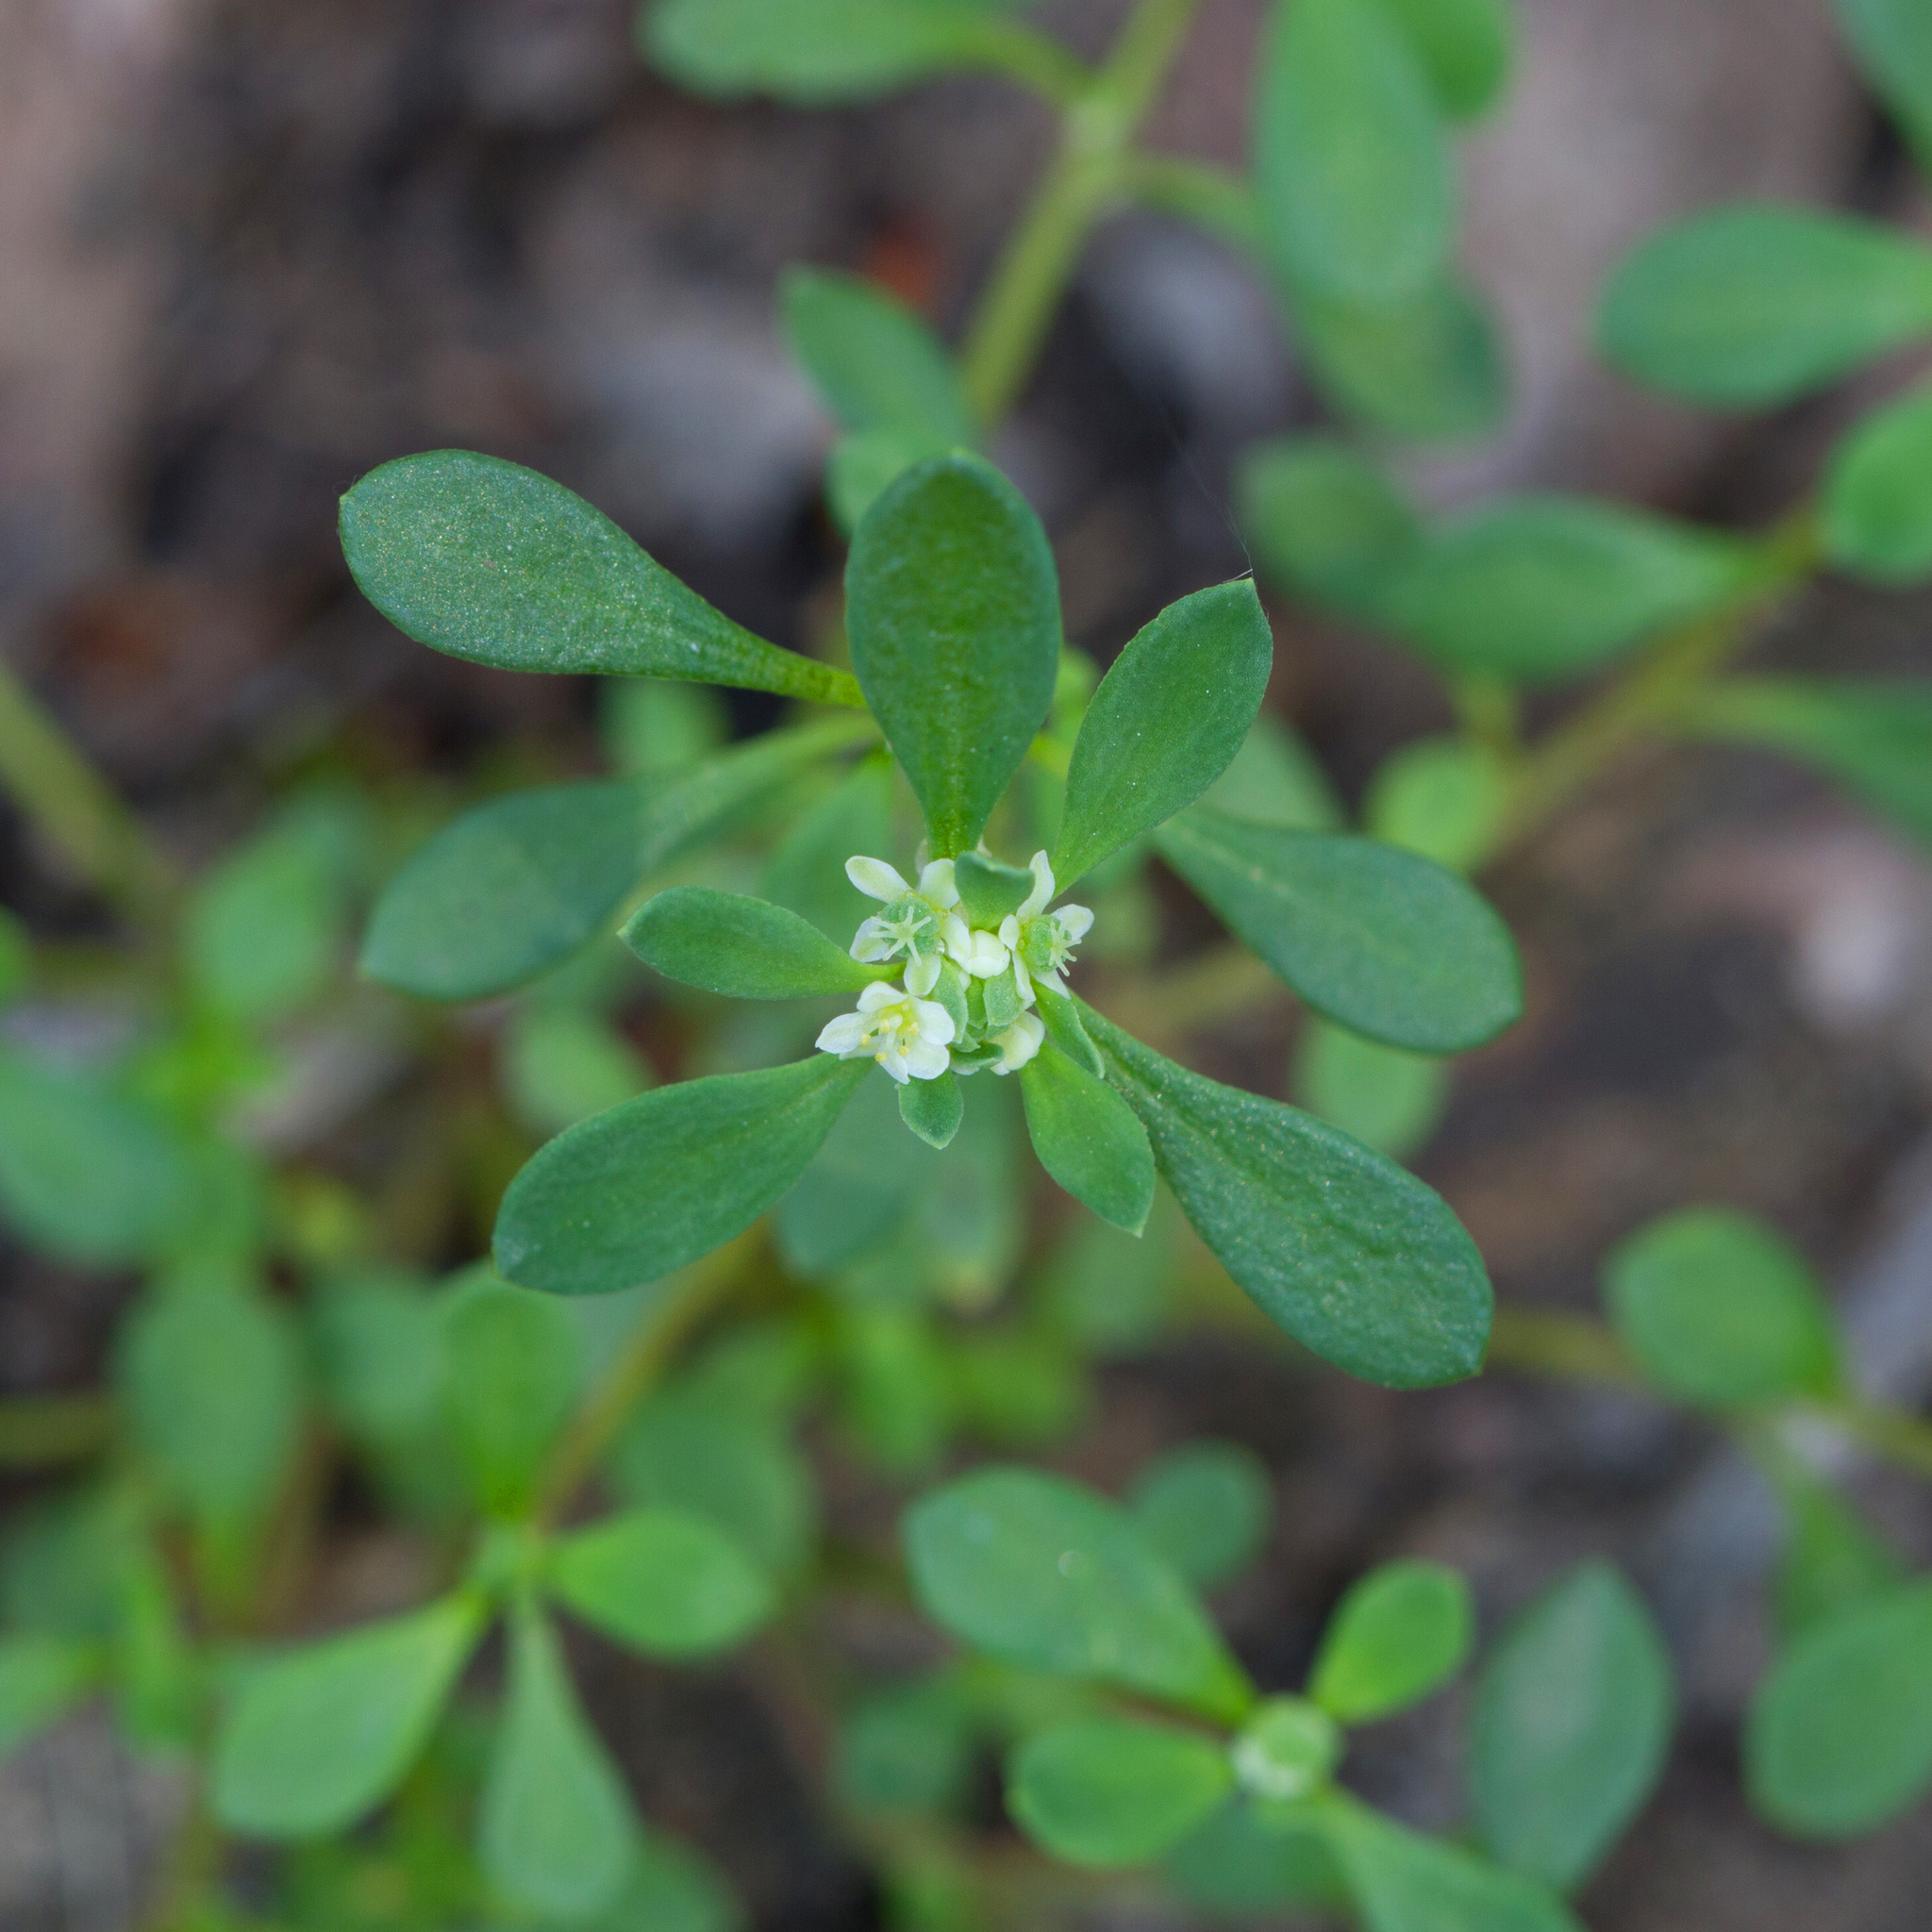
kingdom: Plantae
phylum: Tracheophyta
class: Magnoliopsida
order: Malpighiales
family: Phyllanthaceae
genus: Poranthera
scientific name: Poranthera microphylla
